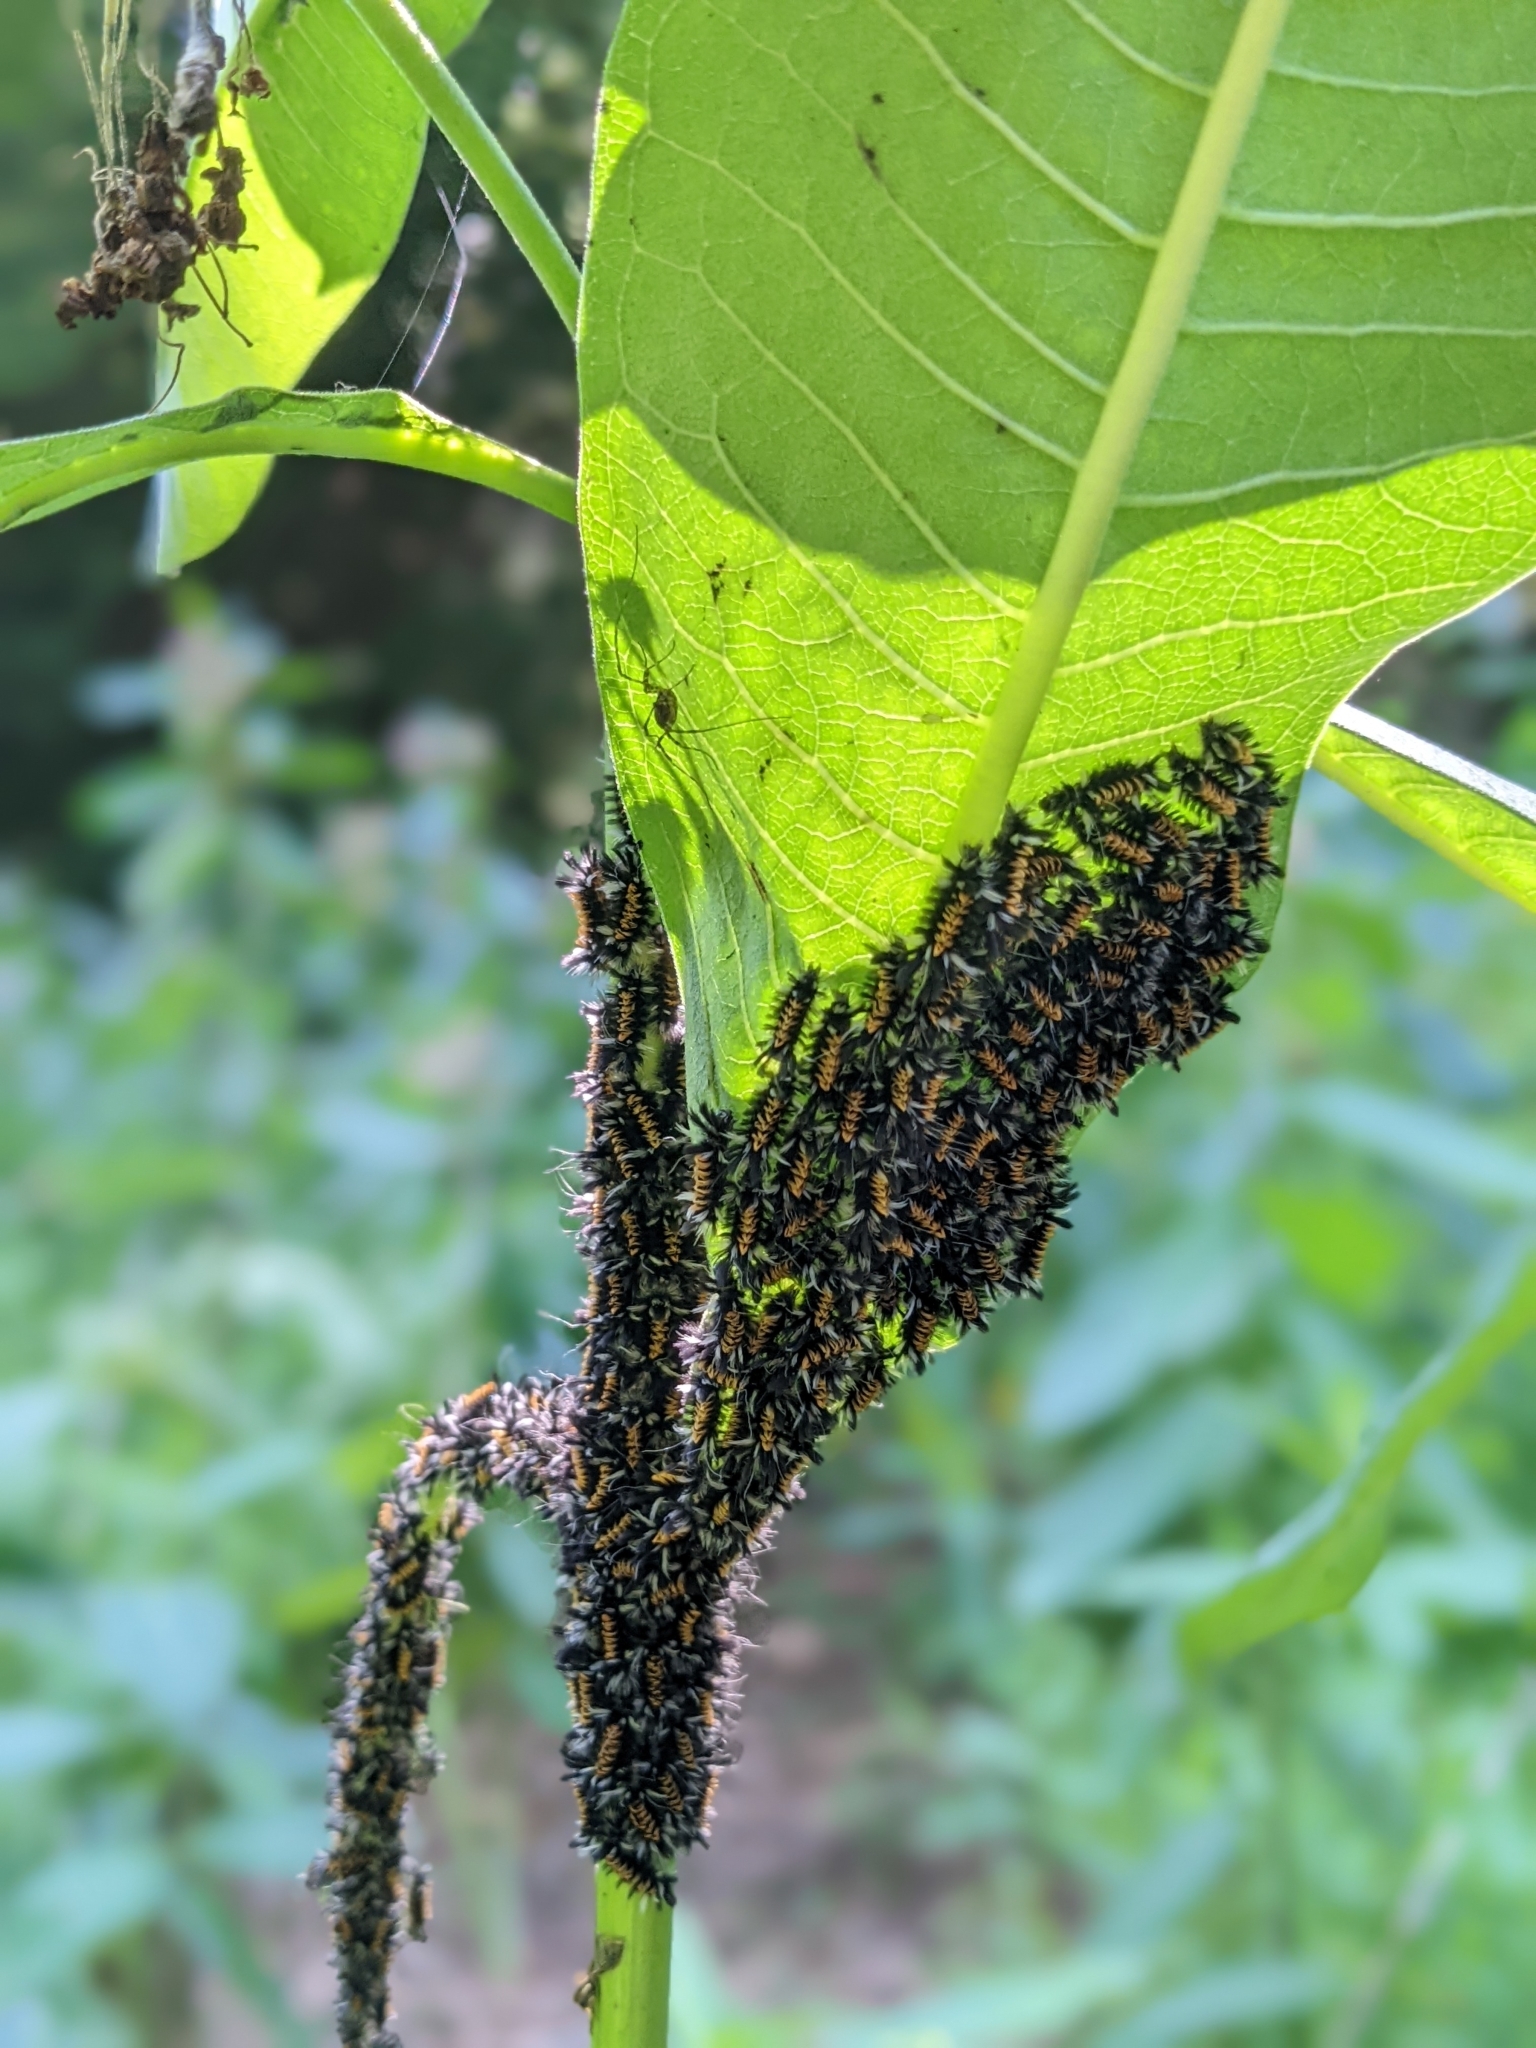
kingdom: Animalia
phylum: Arthropoda
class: Insecta
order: Lepidoptera
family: Erebidae
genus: Euchaetes
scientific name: Euchaetes egle
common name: Milkweed tussock moth
